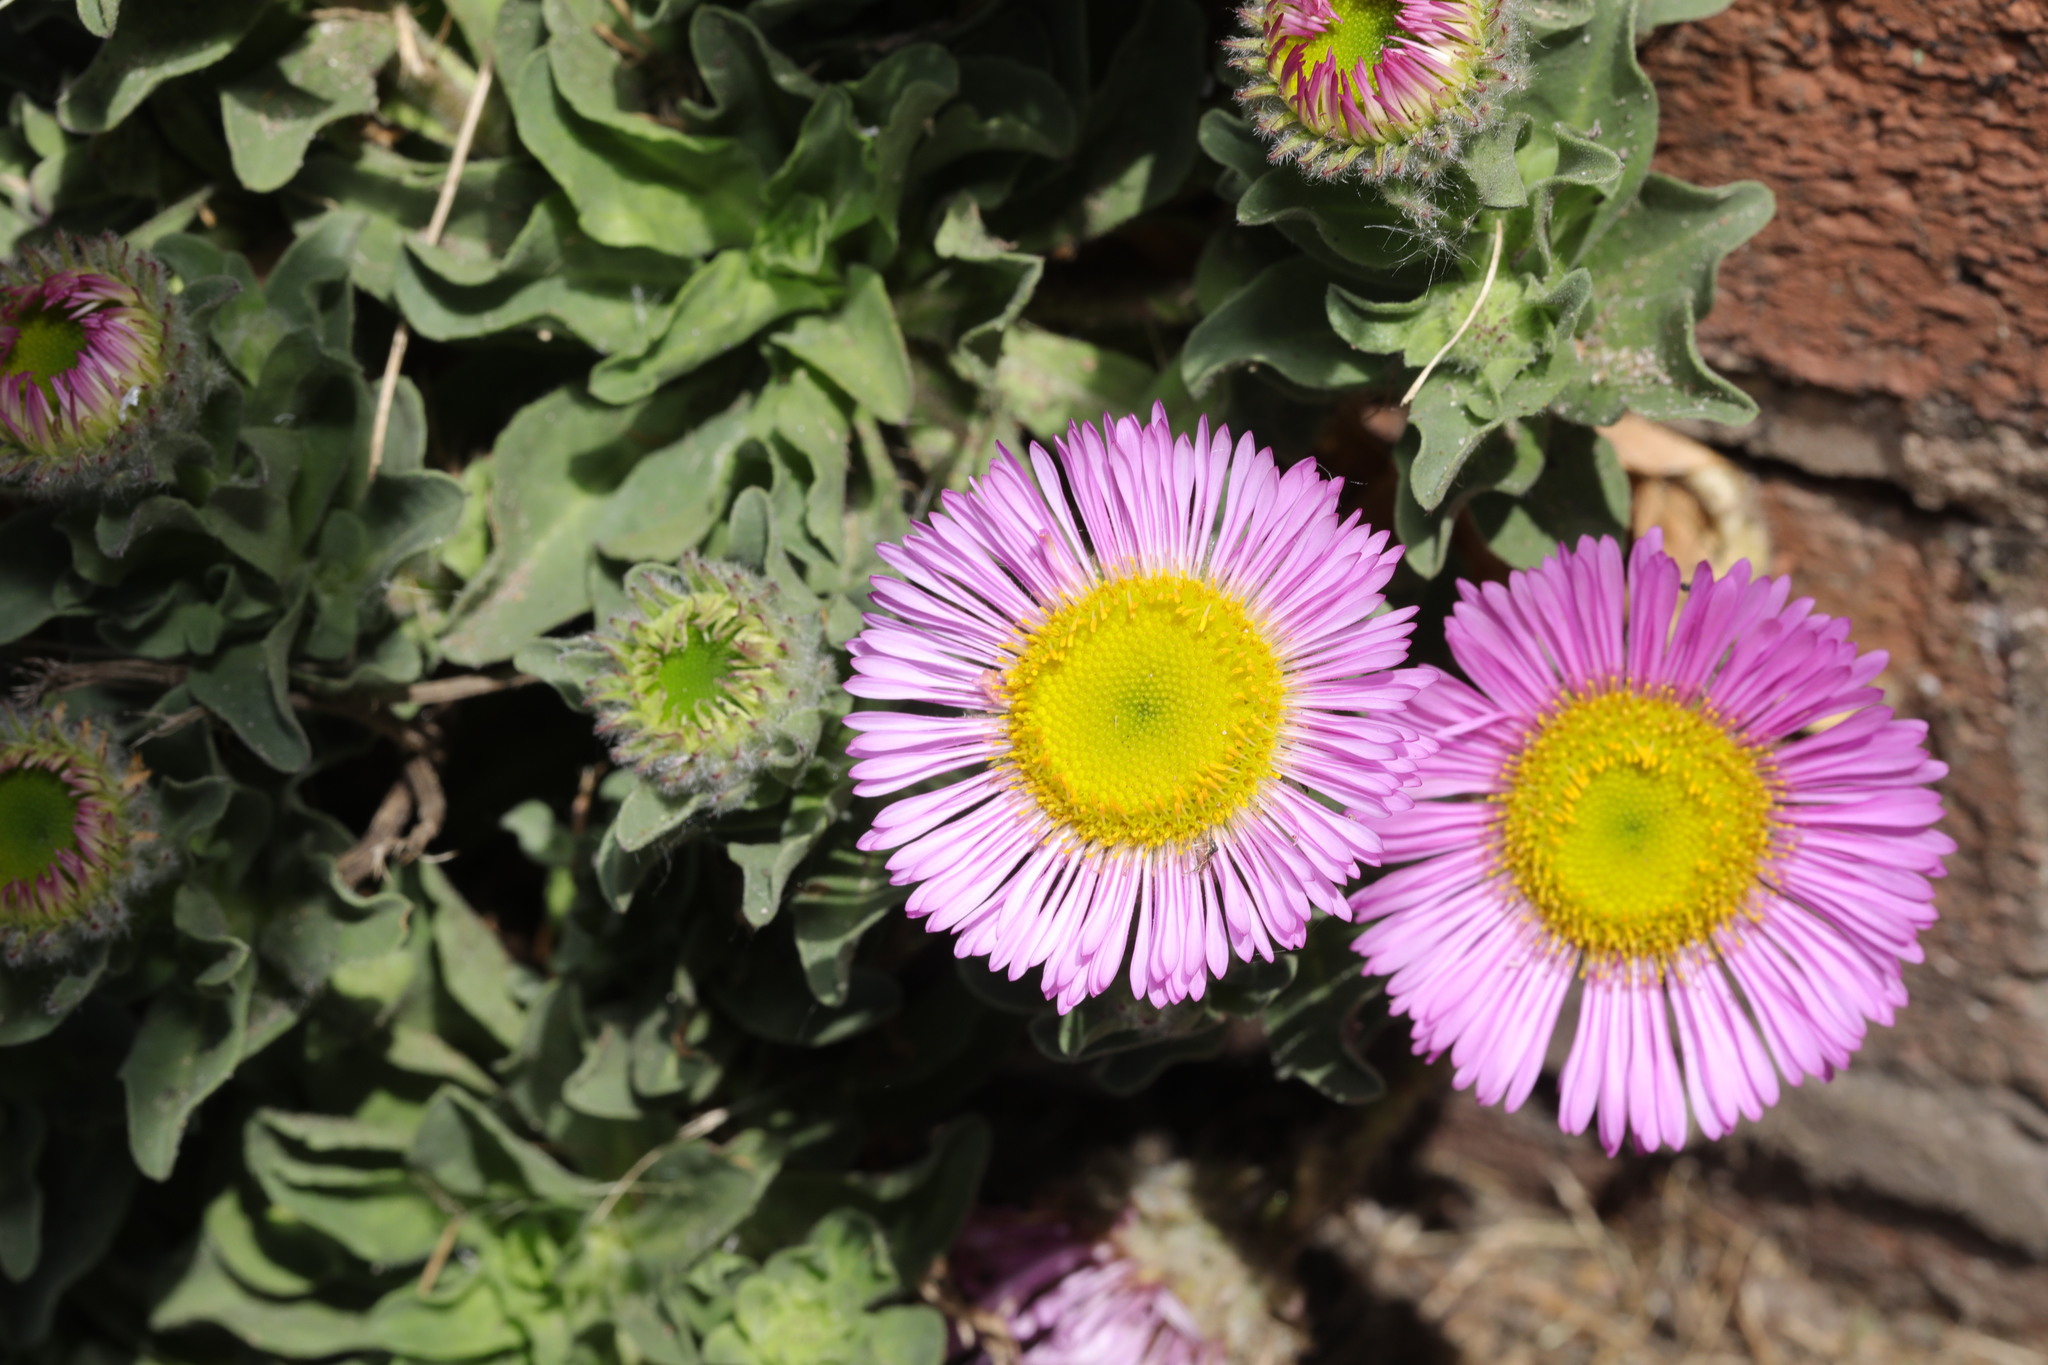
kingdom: Plantae
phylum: Tracheophyta
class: Magnoliopsida
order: Asterales
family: Asteraceae
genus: Erigeron
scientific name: Erigeron glaucus
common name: Seaside daisy
